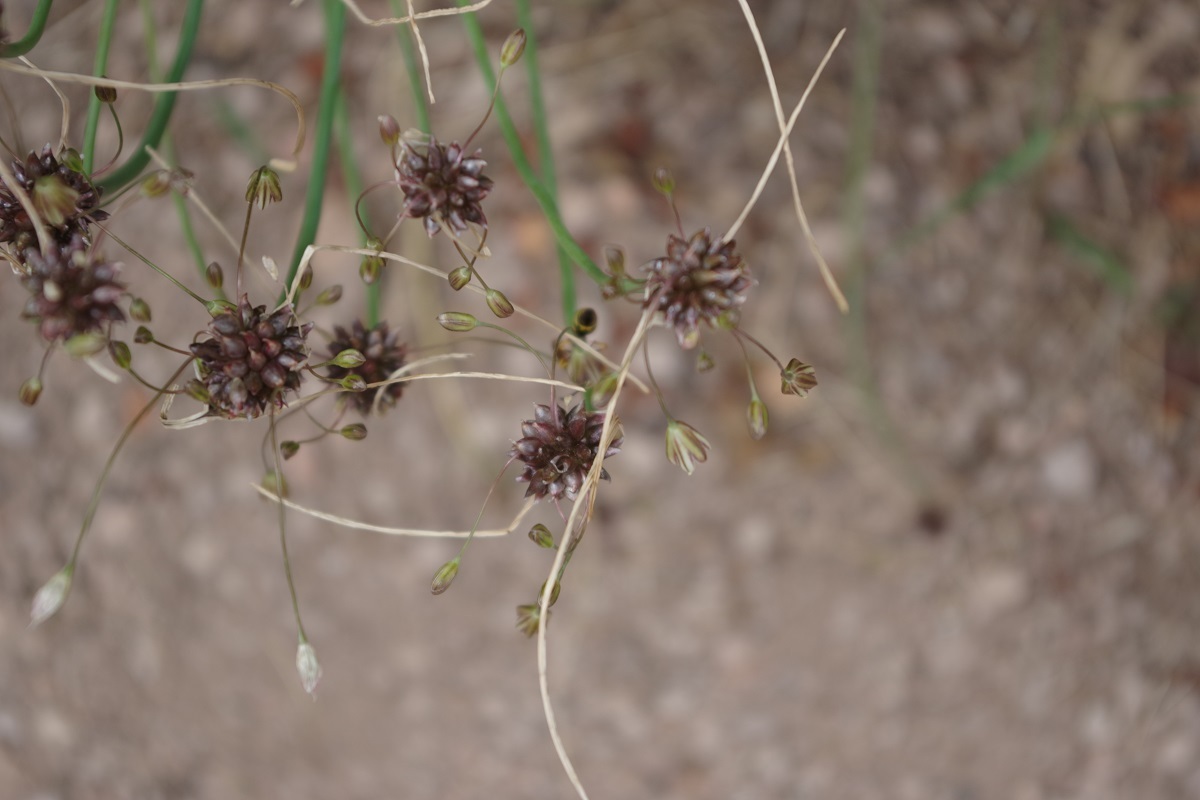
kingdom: Plantae
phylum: Tracheophyta
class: Liliopsida
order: Asparagales
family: Amaryllidaceae
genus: Allium
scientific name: Allium oleraceum
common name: Field garlic
